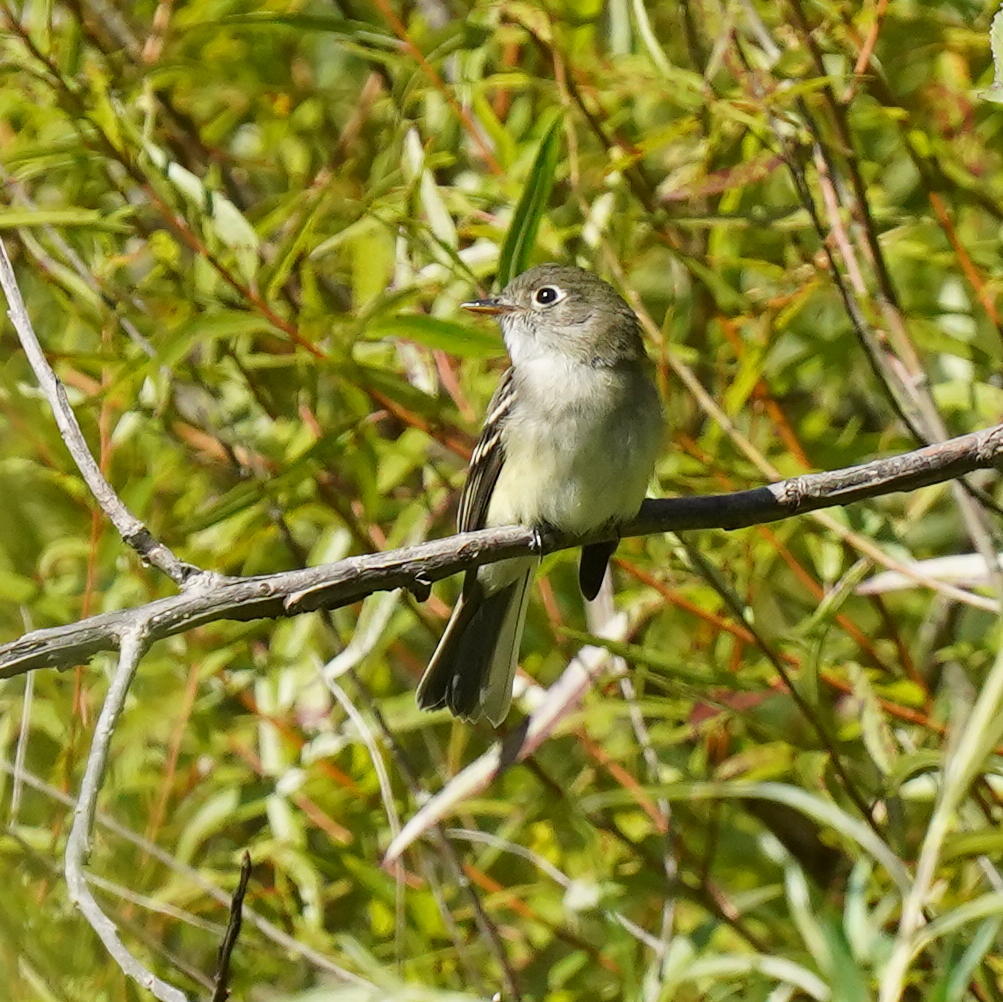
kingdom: Animalia
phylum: Chordata
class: Aves
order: Passeriformes
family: Tyrannidae
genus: Empidonax
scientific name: Empidonax minimus
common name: Least flycatcher
